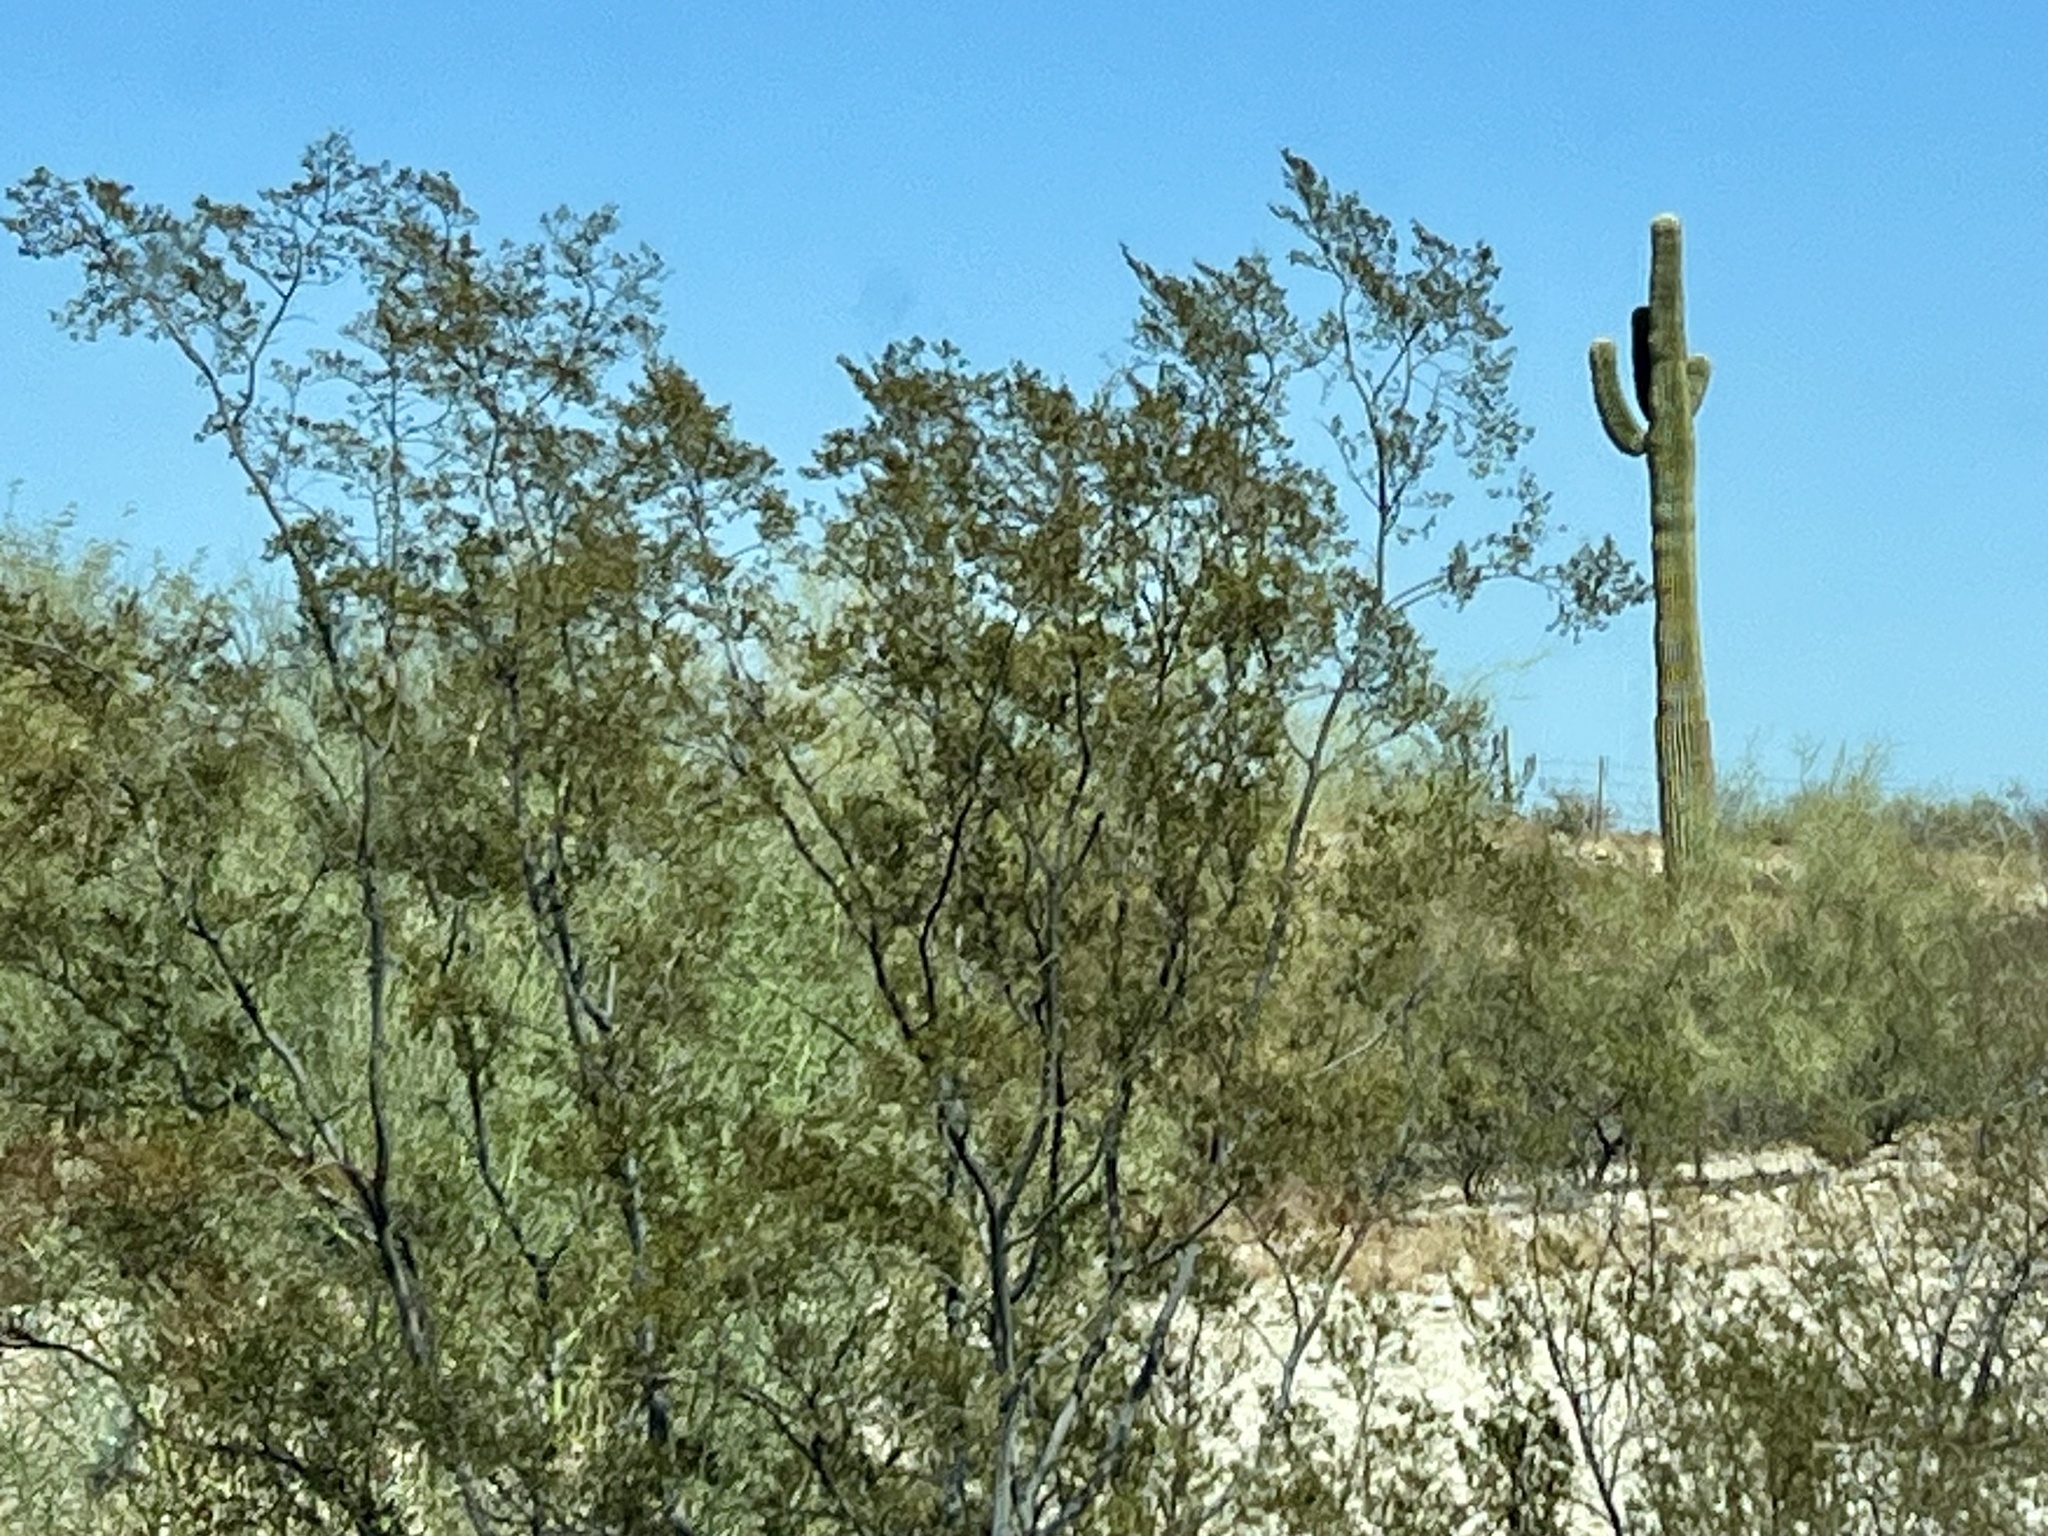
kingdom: Plantae
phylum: Tracheophyta
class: Magnoliopsida
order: Zygophyllales
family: Zygophyllaceae
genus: Larrea
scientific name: Larrea tridentata
